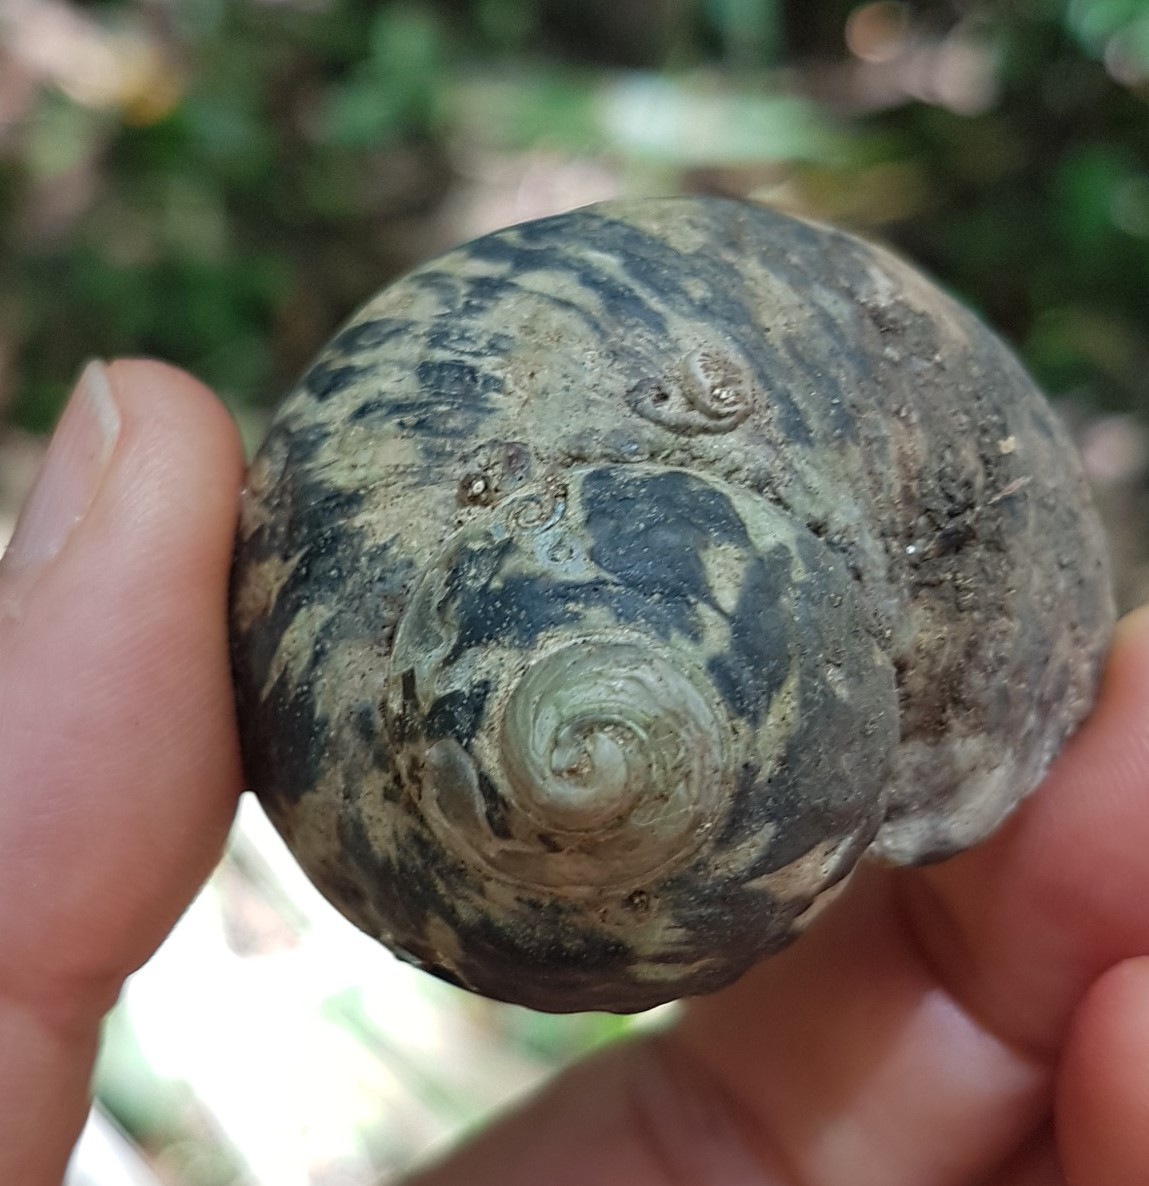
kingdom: Animalia
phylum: Mollusca
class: Gastropoda
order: Trochida
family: Tegulidae
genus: Cittarium
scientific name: Cittarium pica
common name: West indian topshell
